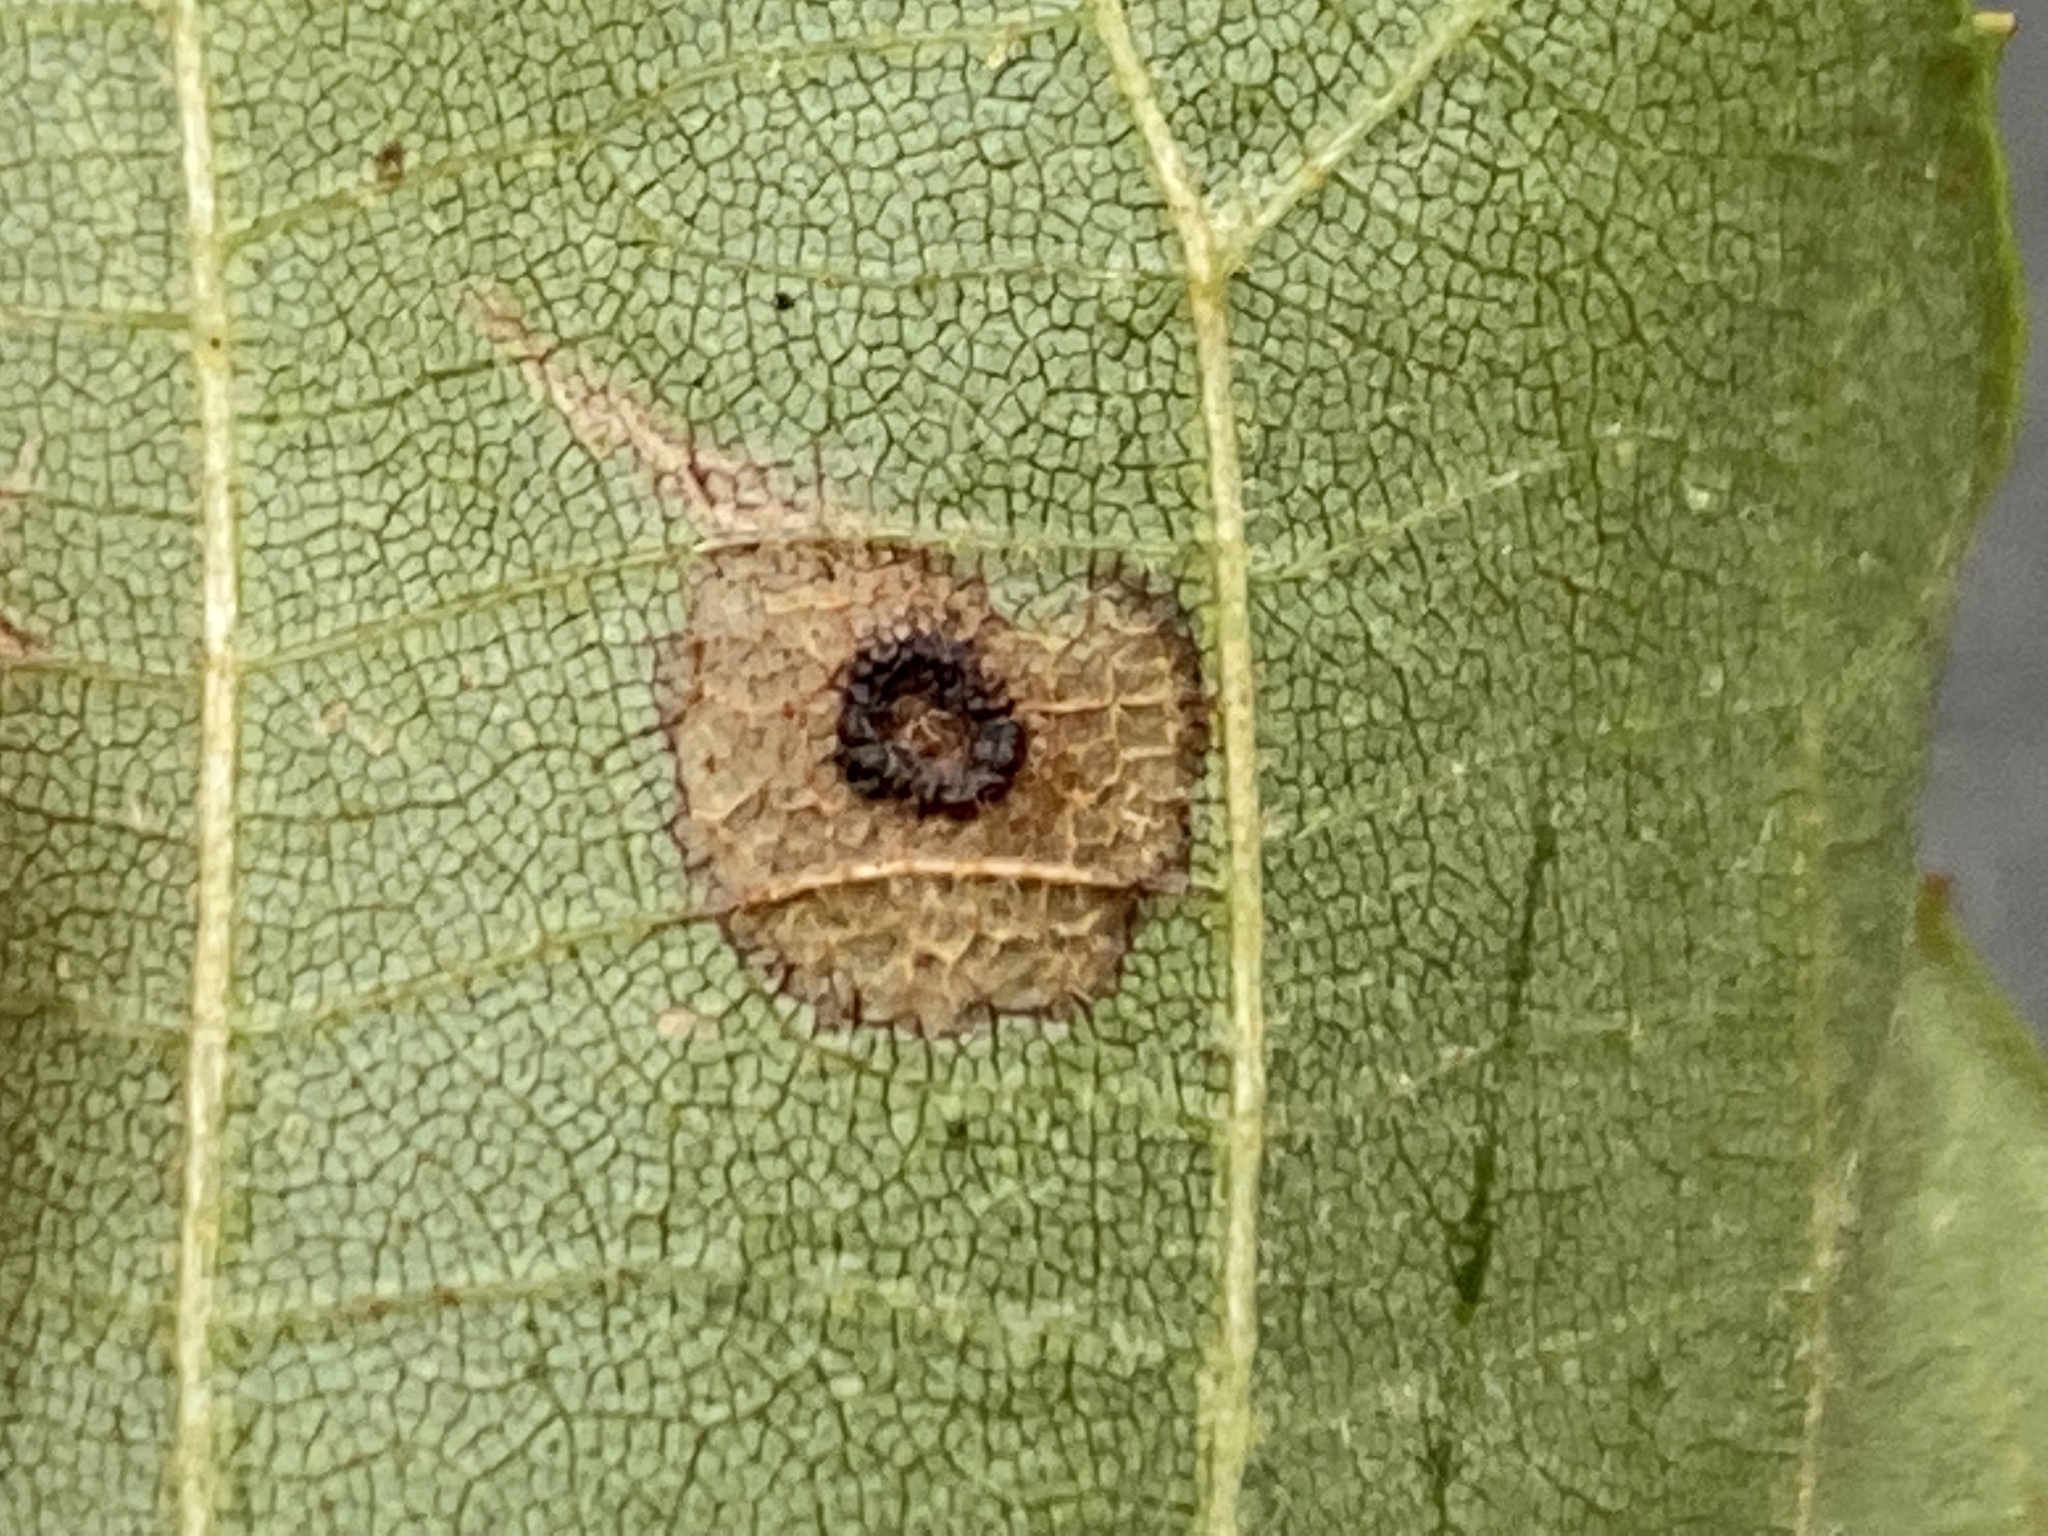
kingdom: Animalia
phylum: Arthropoda
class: Insecta
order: Diptera
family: Cecidomyiidae
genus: Gliaspilota
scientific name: Gliaspilota glutinosa
